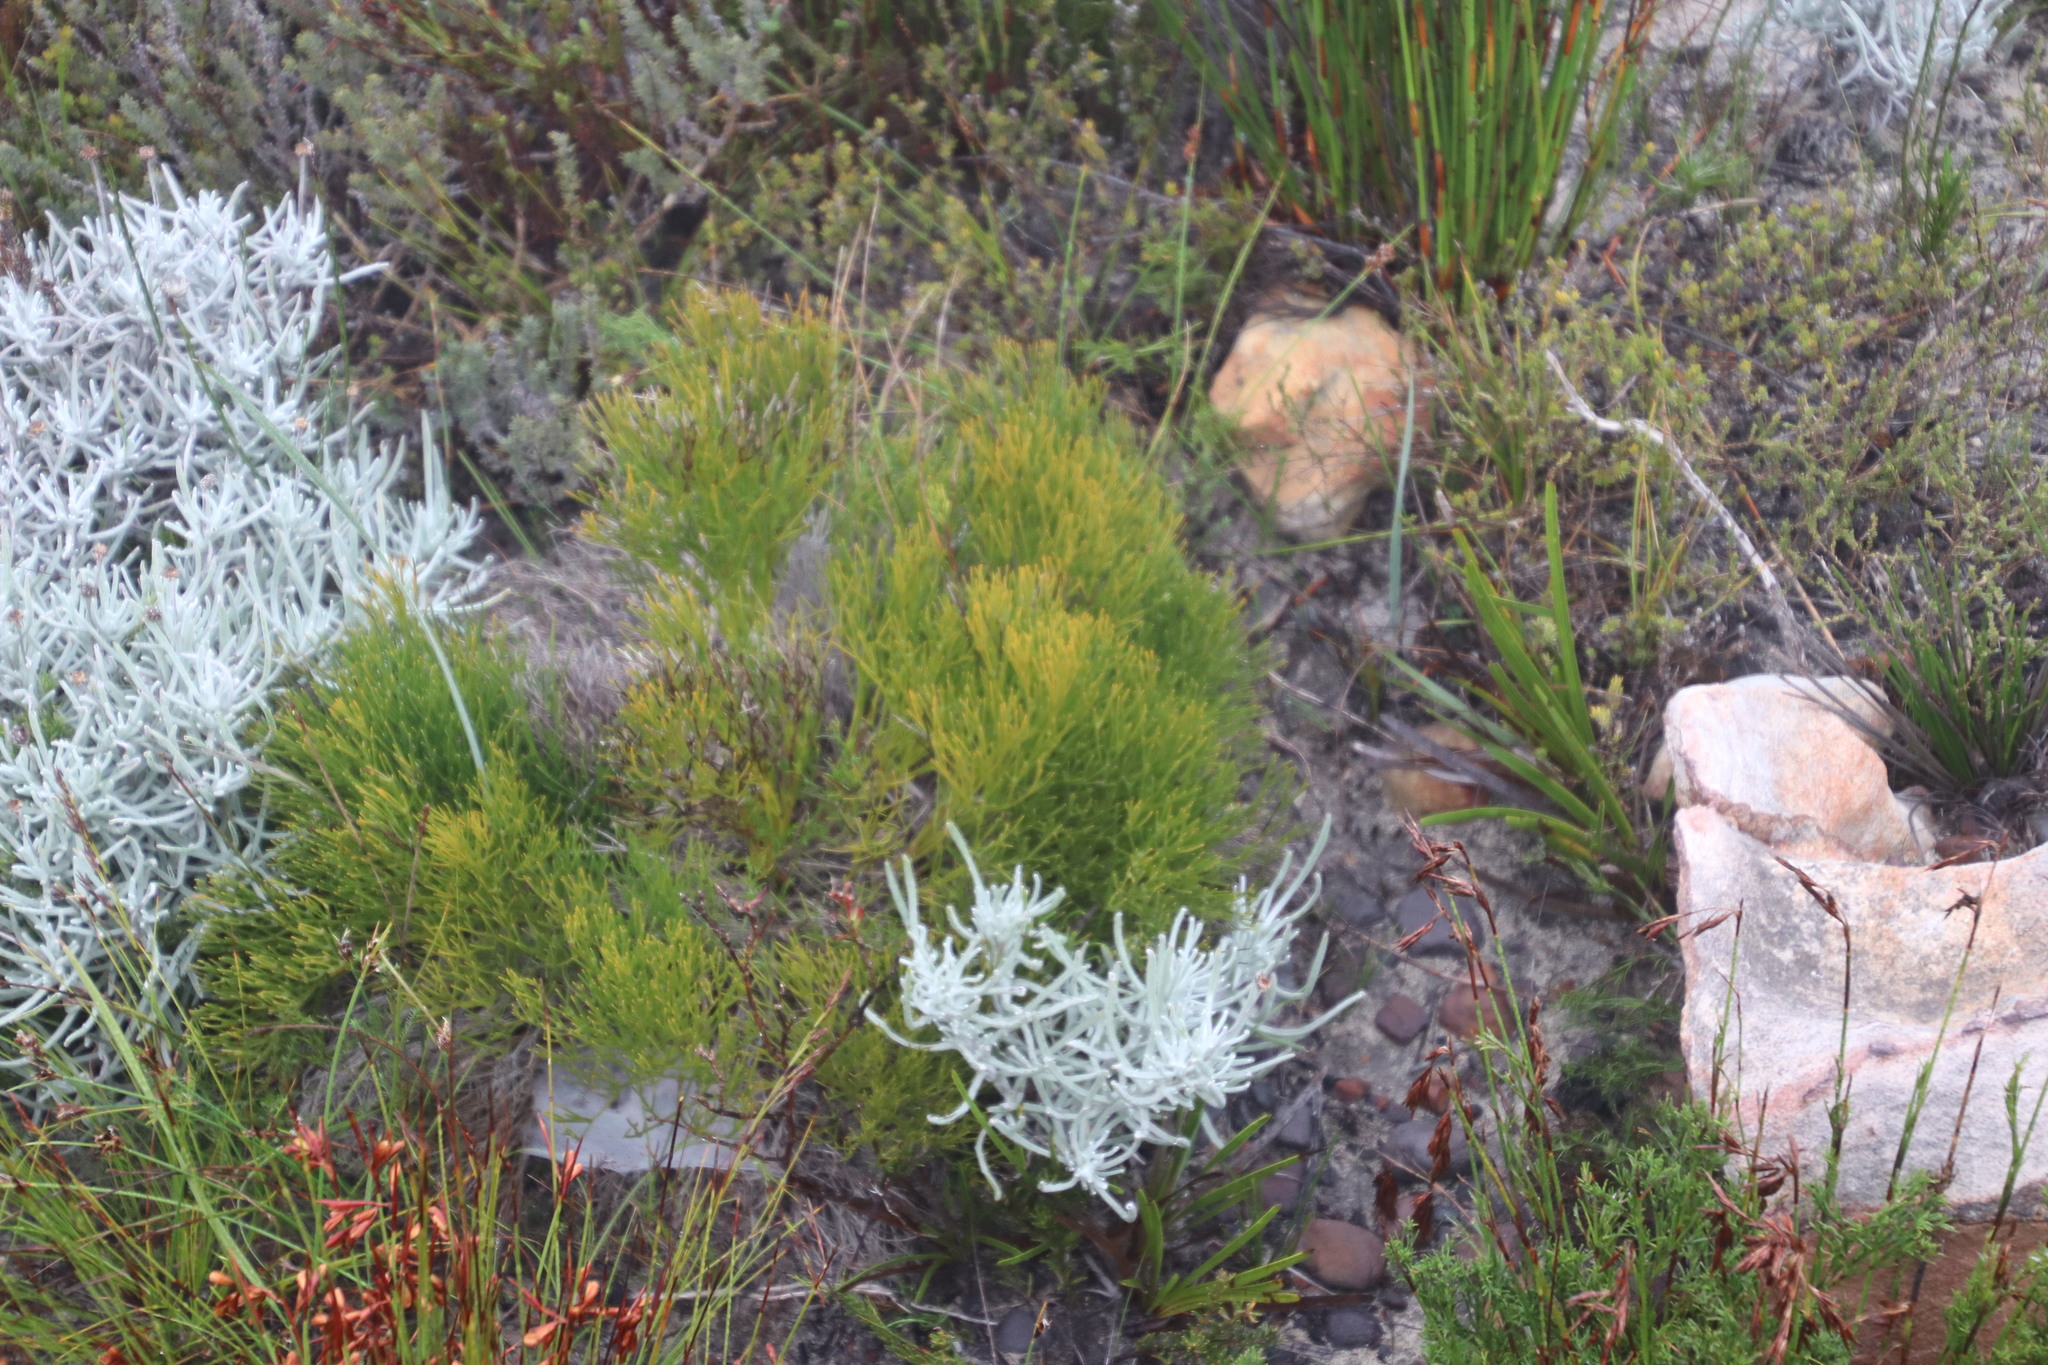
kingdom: Plantae
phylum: Tracheophyta
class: Magnoliopsida
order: Apiales
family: Apiaceae
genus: Nanobubon
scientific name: Nanobubon strictum
